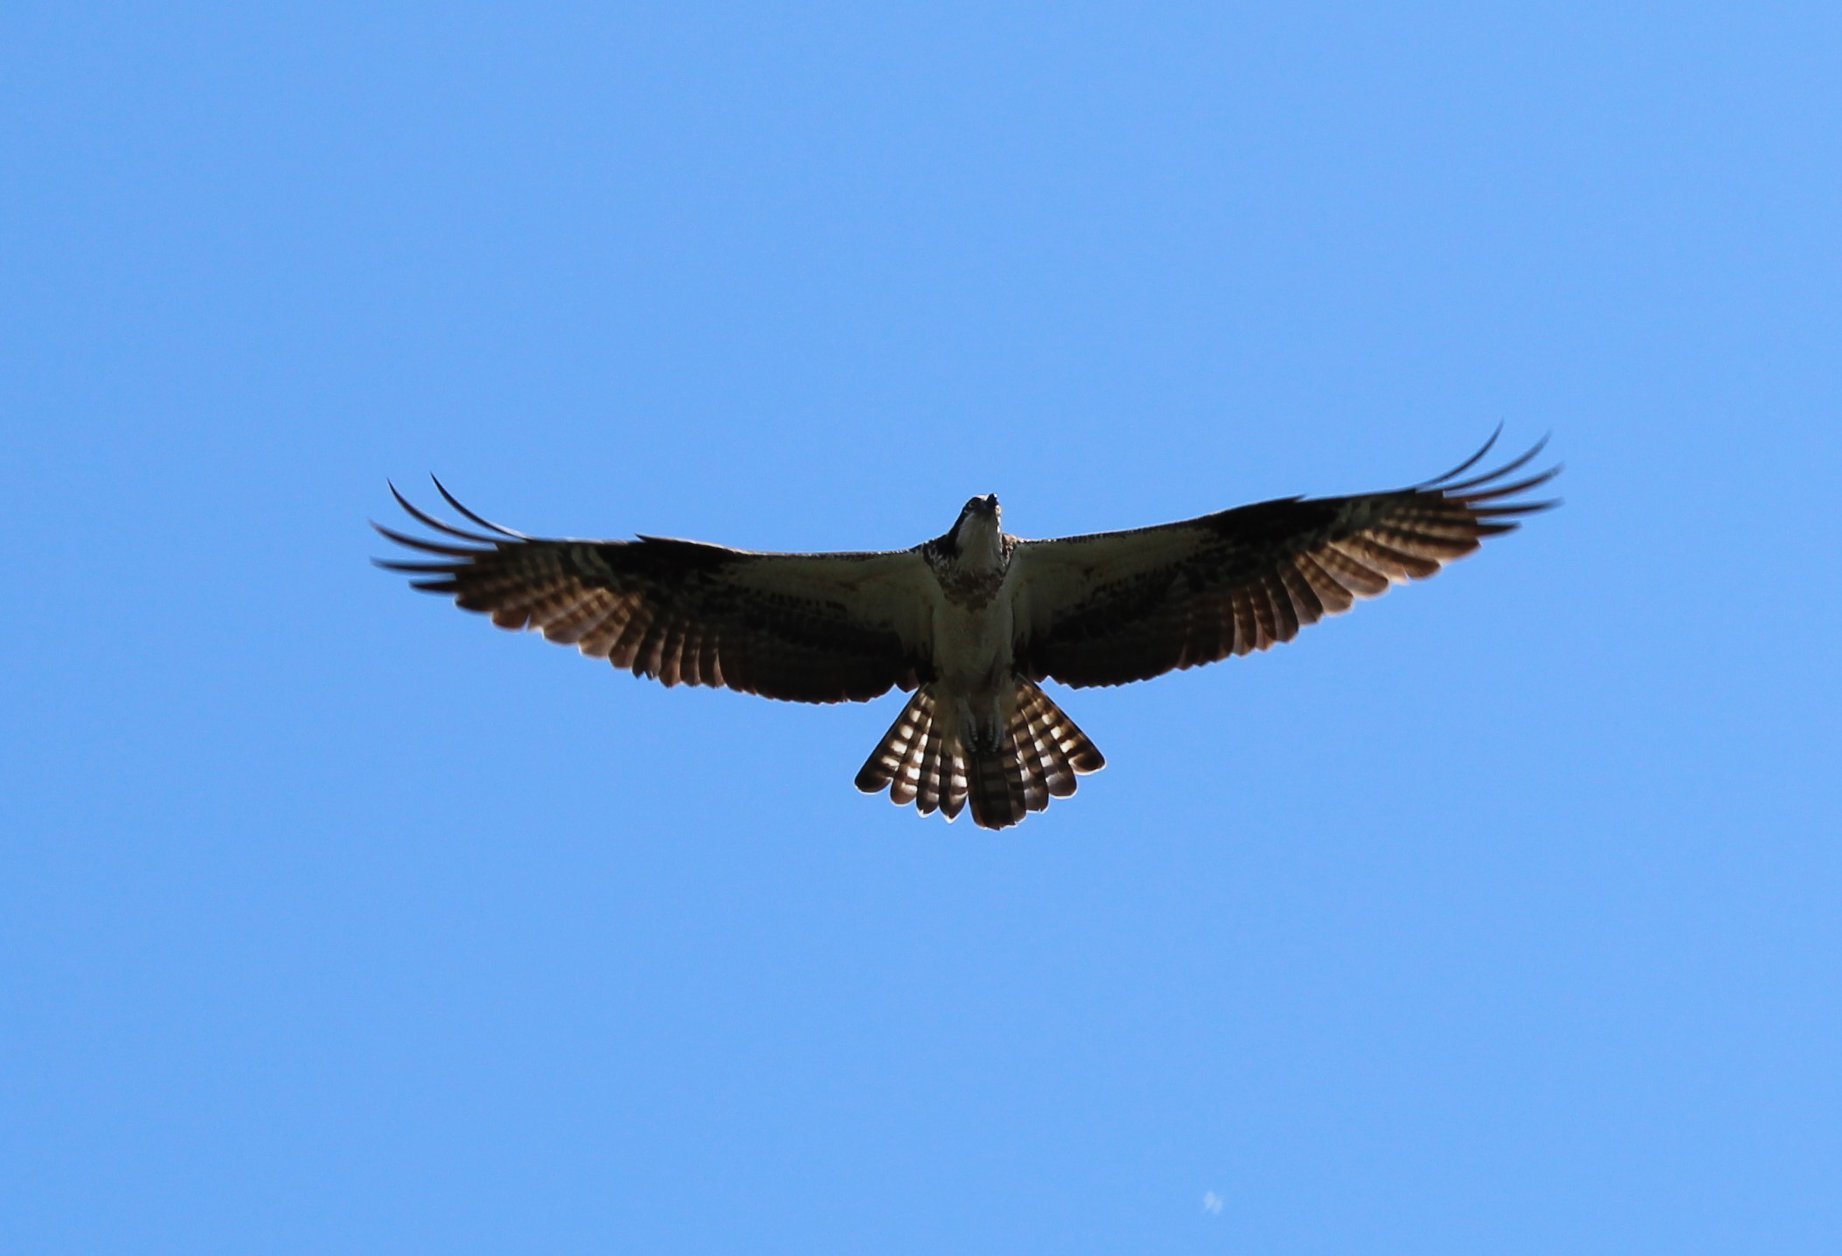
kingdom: Animalia
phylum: Chordata
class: Aves
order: Accipitriformes
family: Pandionidae
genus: Pandion
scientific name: Pandion haliaetus
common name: Osprey
